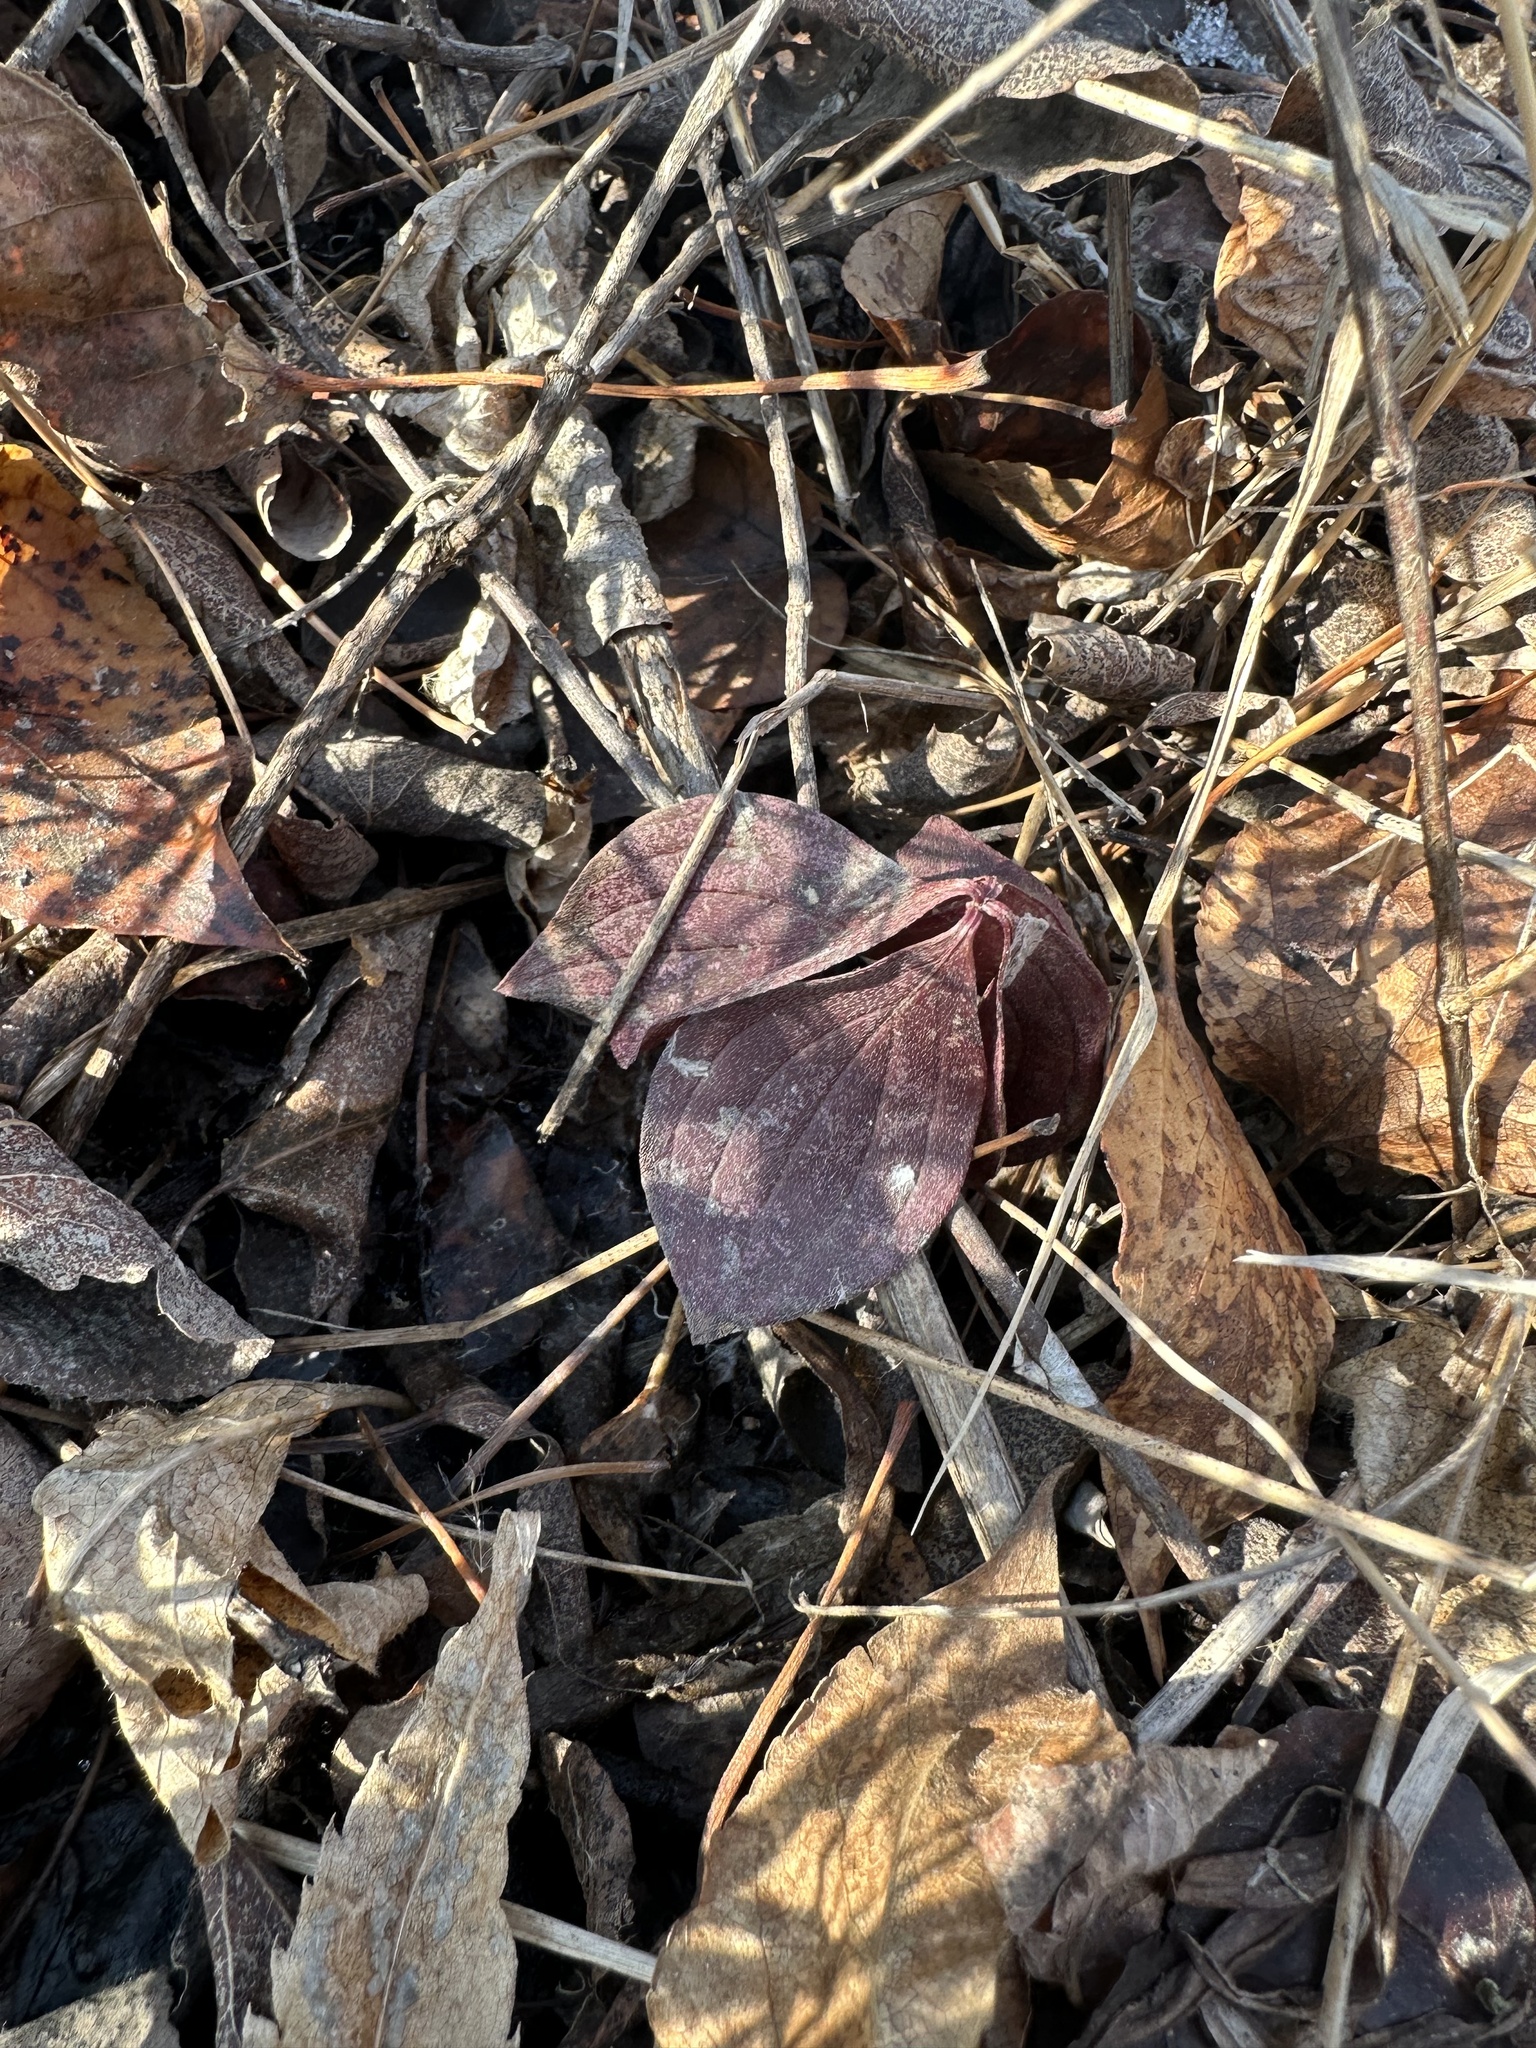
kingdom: Plantae
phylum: Tracheophyta
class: Magnoliopsida
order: Cornales
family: Cornaceae
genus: Cornus
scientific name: Cornus canadensis
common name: Creeping dogwood
